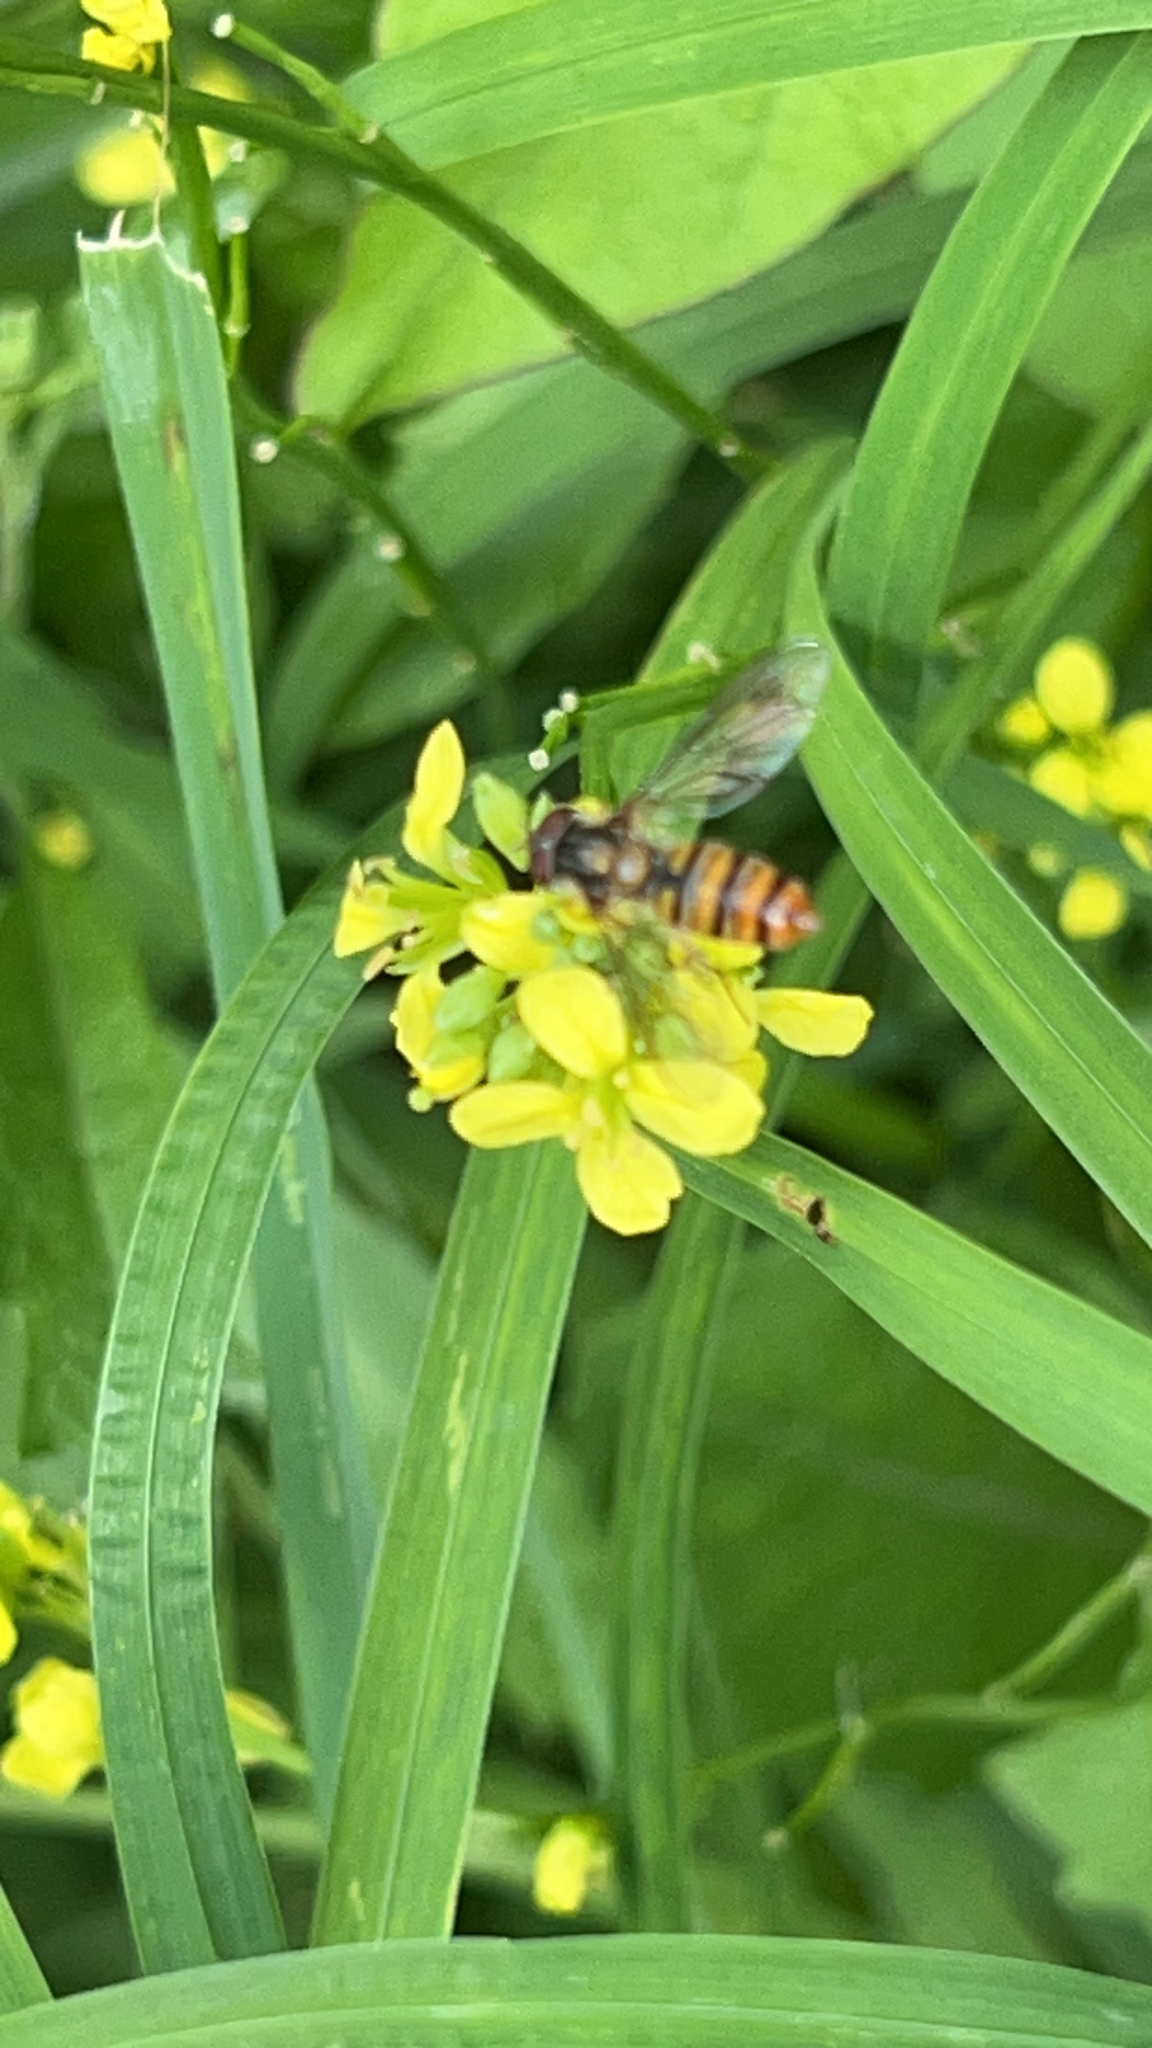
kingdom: Animalia
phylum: Arthropoda
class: Insecta
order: Diptera
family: Syrphidae
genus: Episyrphus
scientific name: Episyrphus balteatus
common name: Marmalade hoverfly
